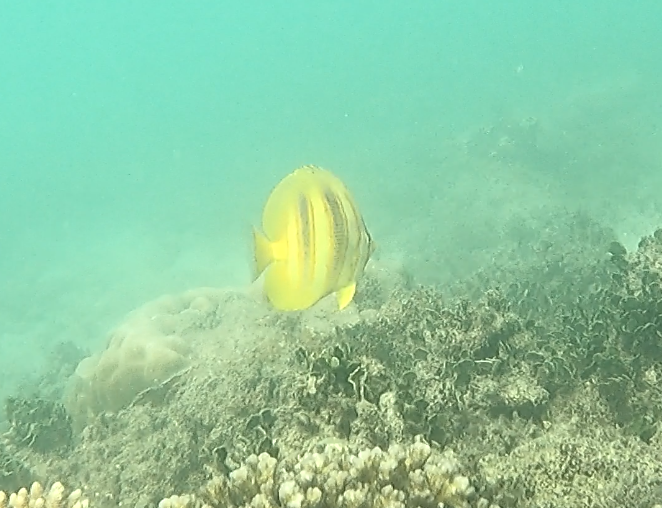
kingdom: Animalia
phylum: Chordata
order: Perciformes
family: Chaetodontidae
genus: Chaetodon
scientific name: Chaetodon rainfordi
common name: Rainford's butterflyfish
